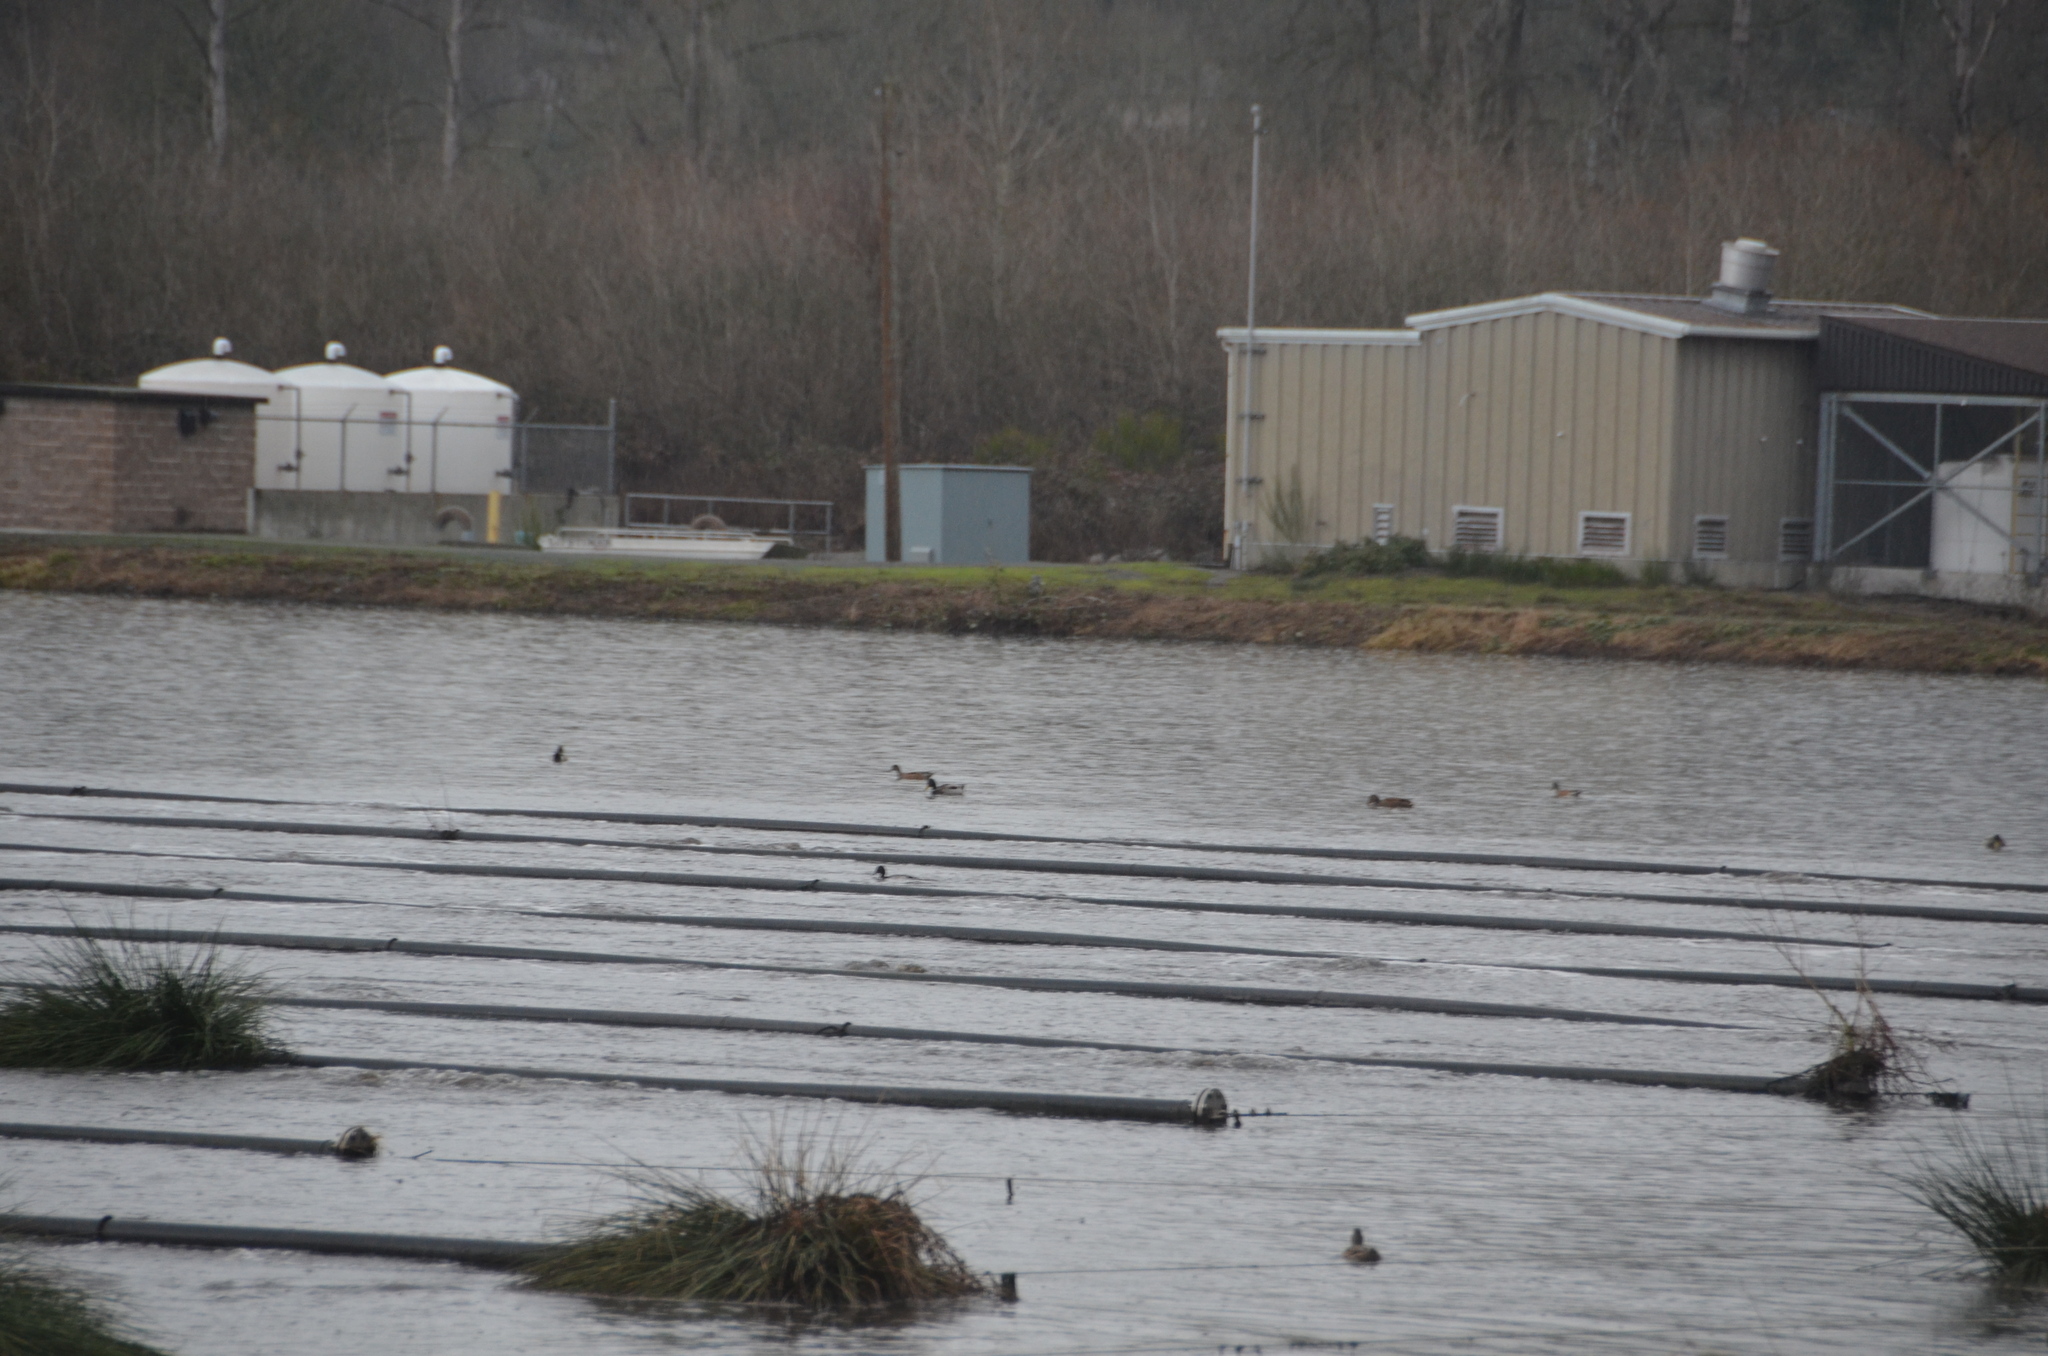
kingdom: Animalia
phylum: Chordata
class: Aves
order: Anseriformes
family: Anatidae
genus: Mareca
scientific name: Mareca americana
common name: American wigeon
